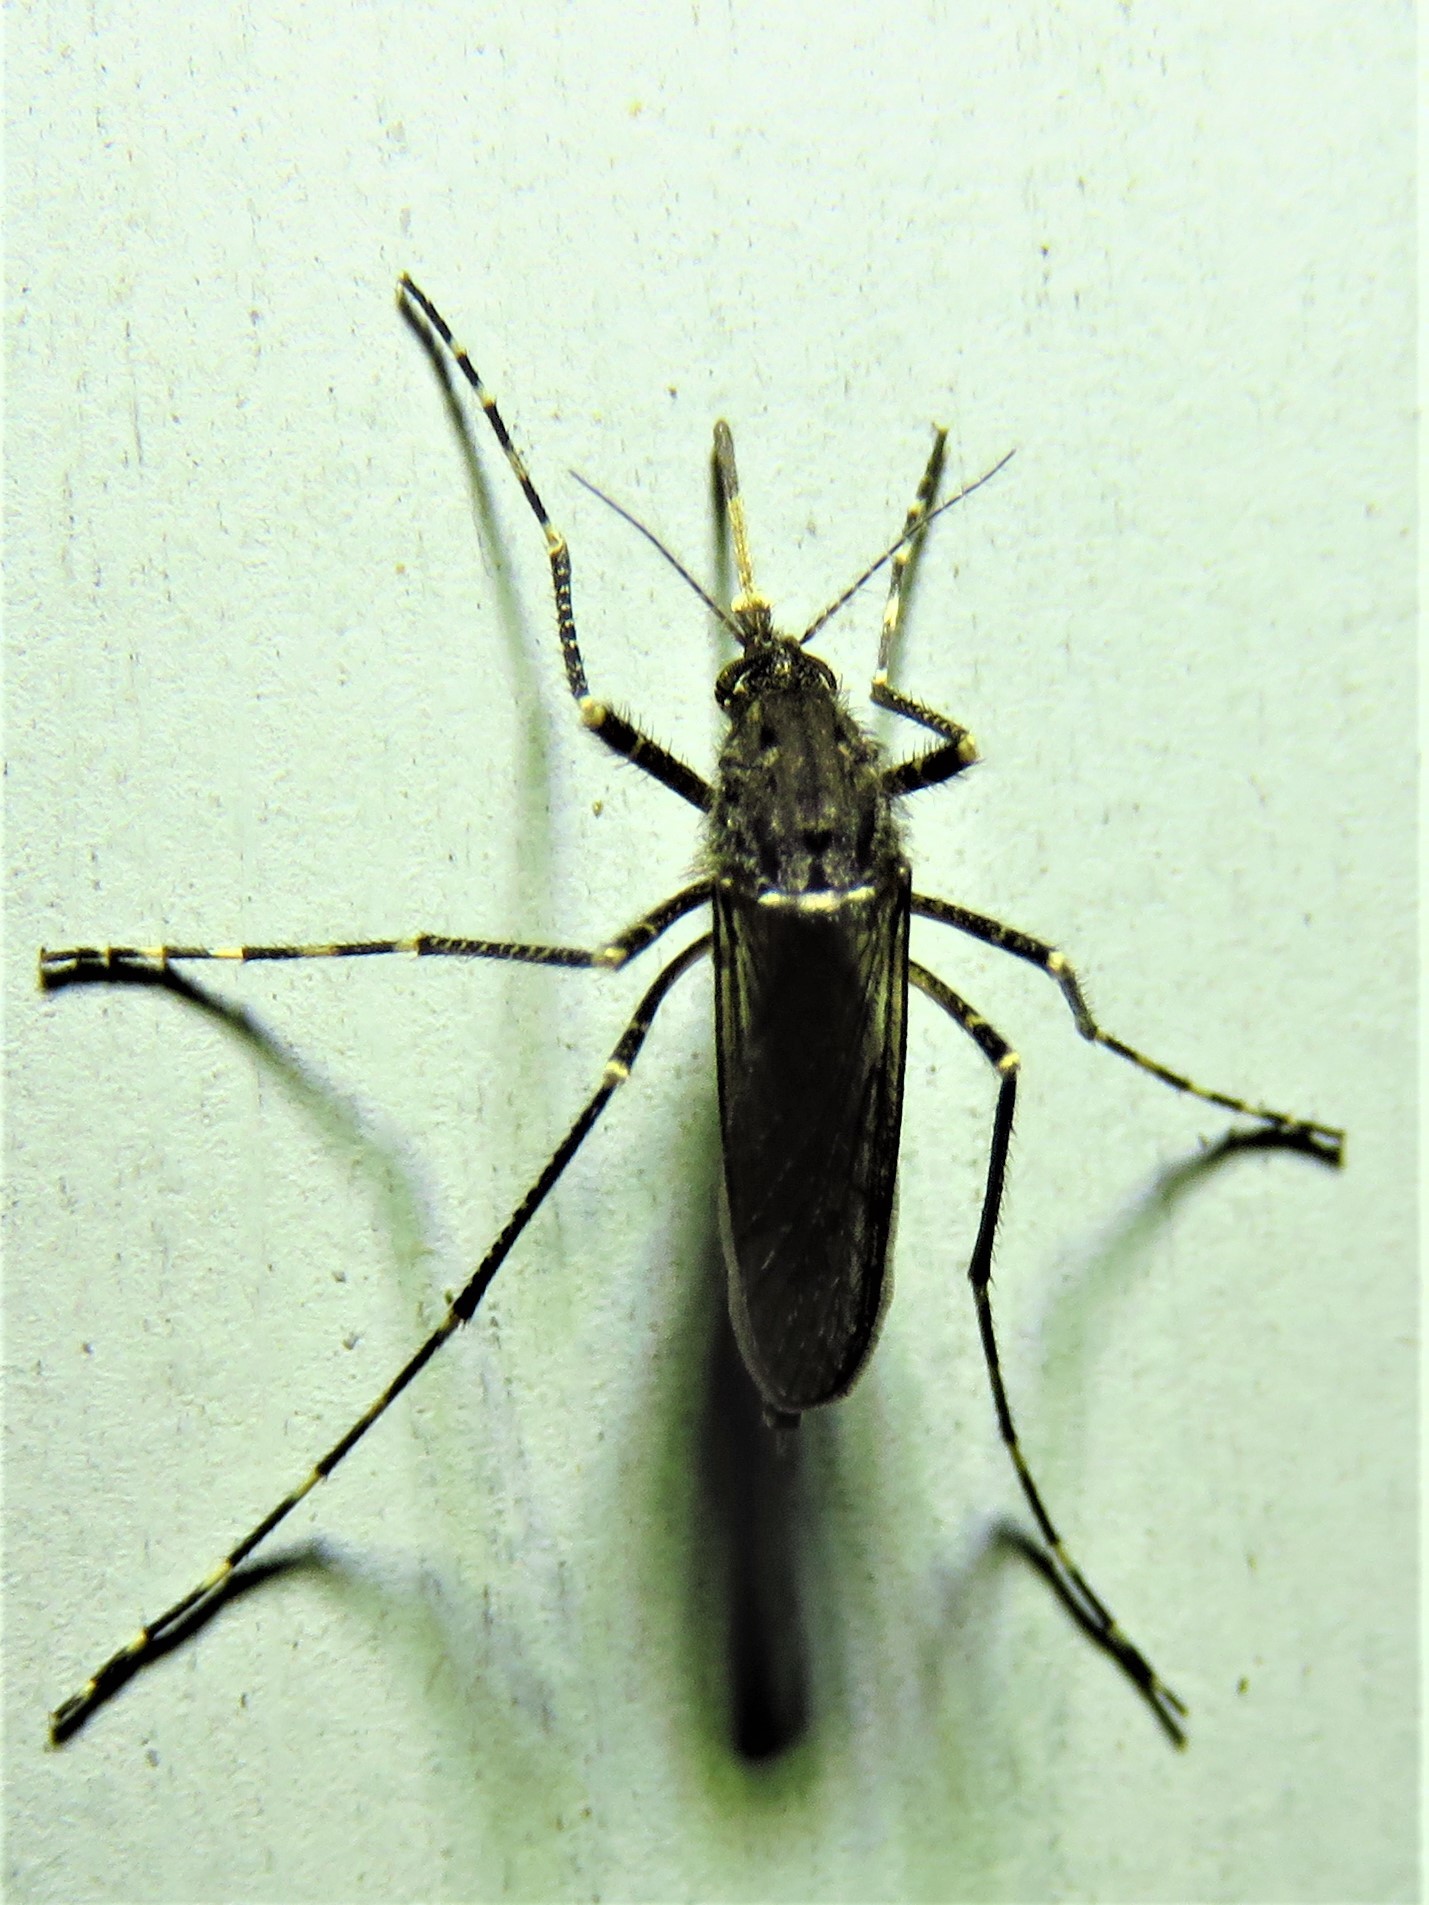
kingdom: Animalia
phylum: Arthropoda
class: Insecta
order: Diptera
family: Culicidae
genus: Psorophora
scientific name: Psorophora columbiae
